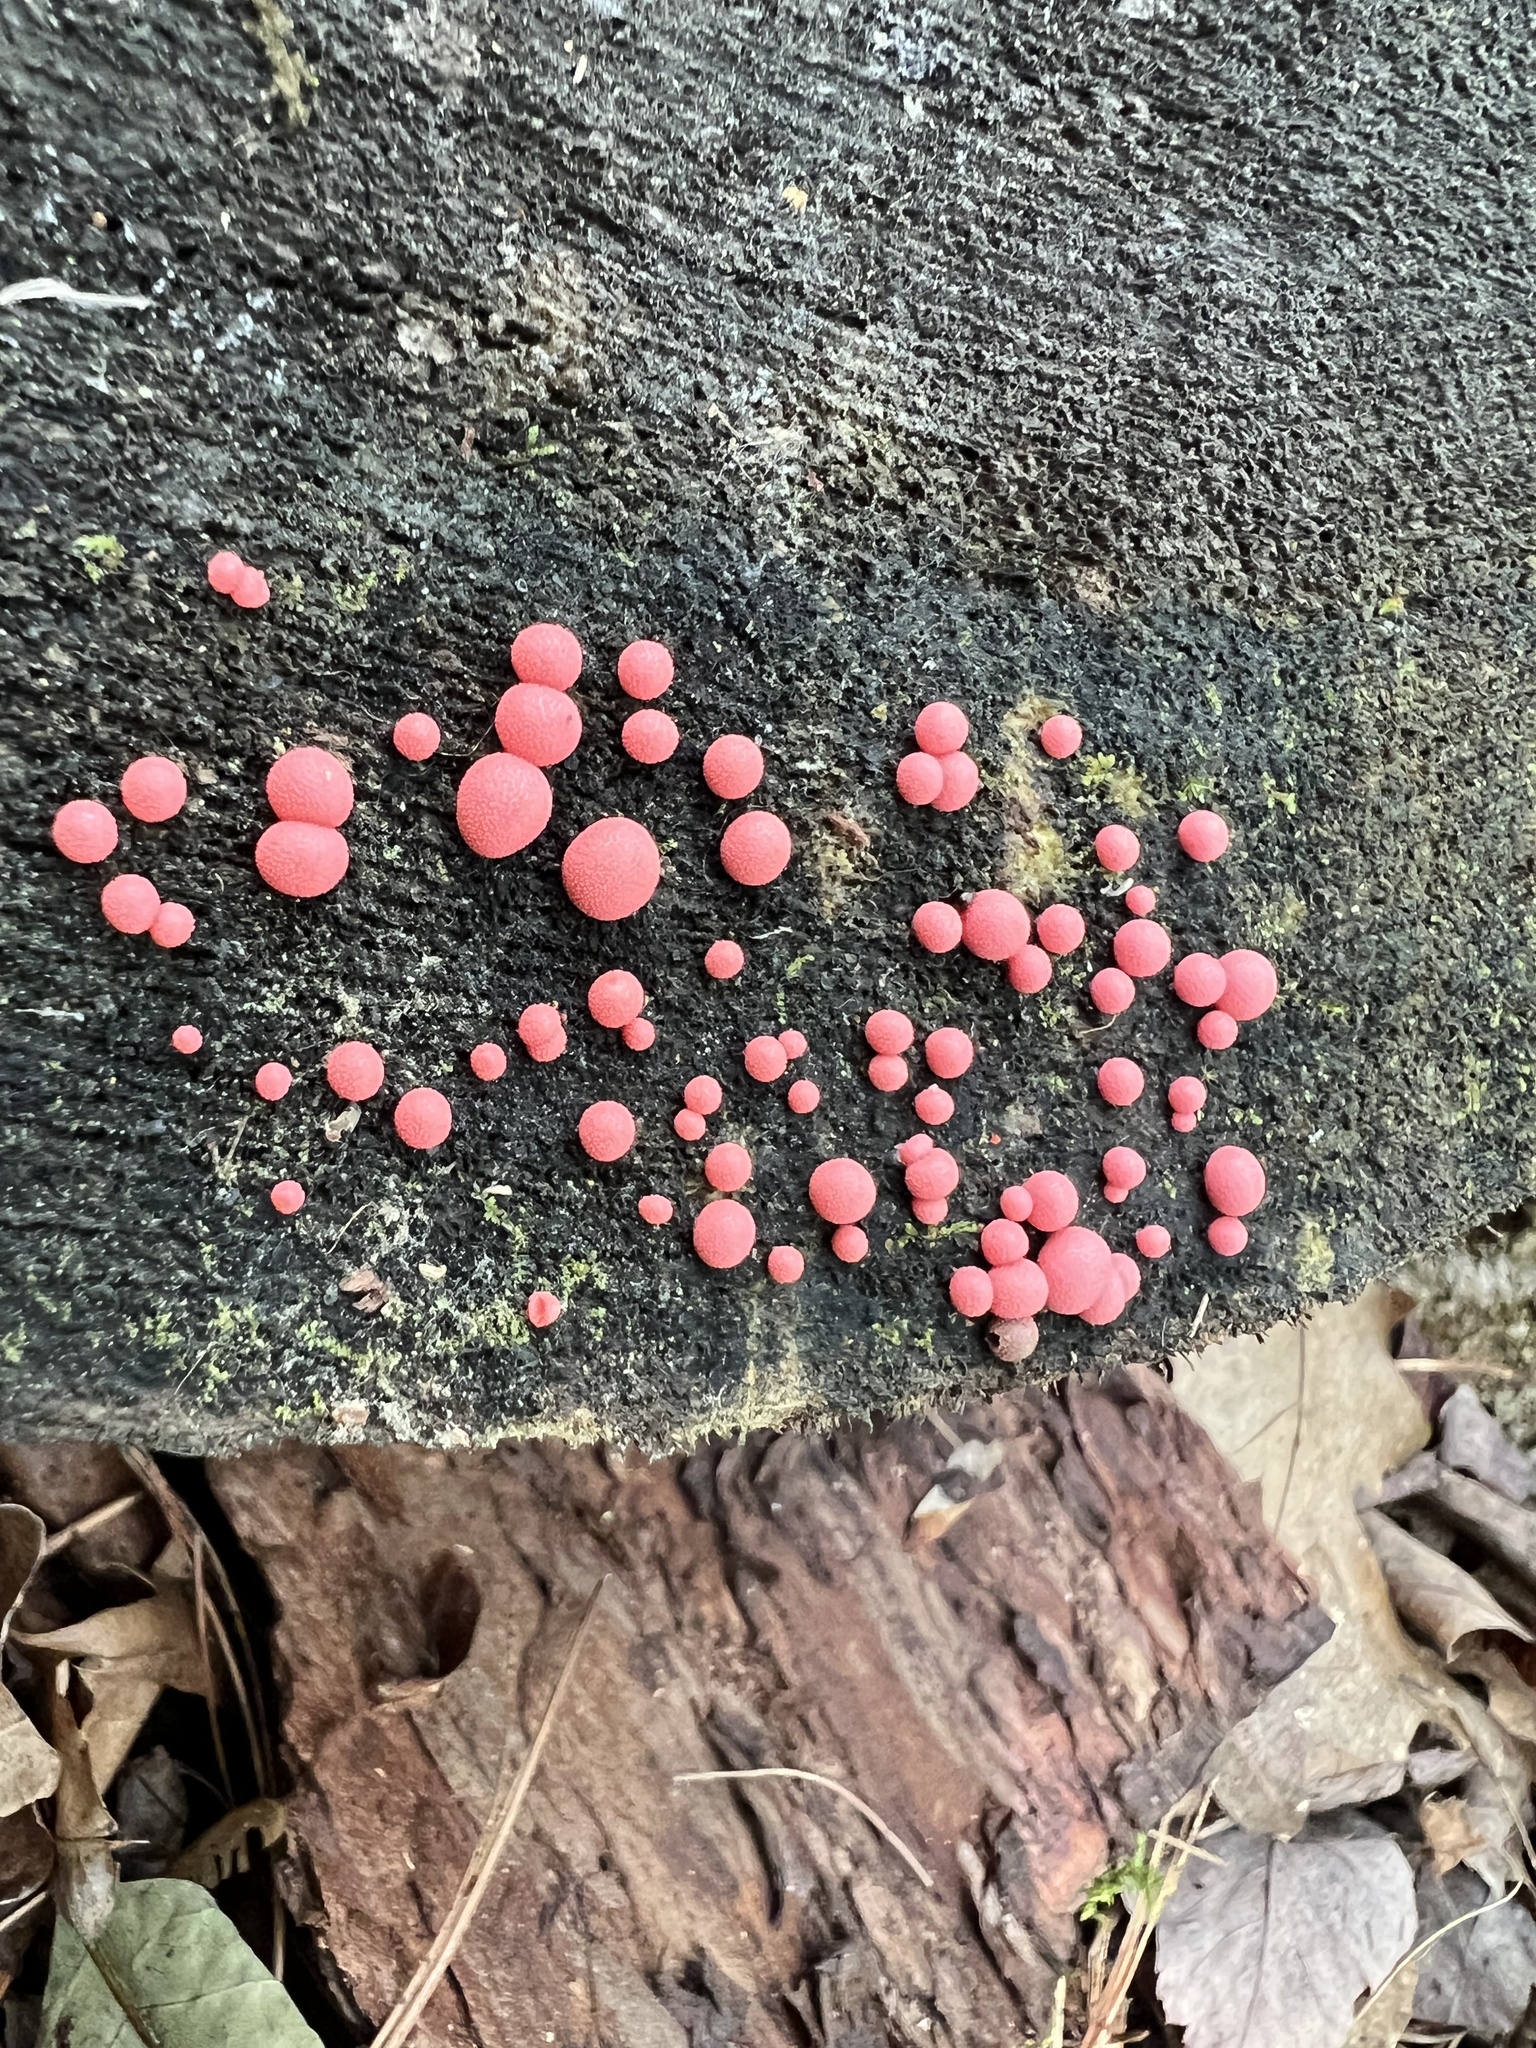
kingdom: Protozoa
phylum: Mycetozoa
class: Myxomycetes
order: Cribrariales
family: Tubiferaceae
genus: Lycogala
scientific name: Lycogala epidendrum
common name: Wolf's milk
